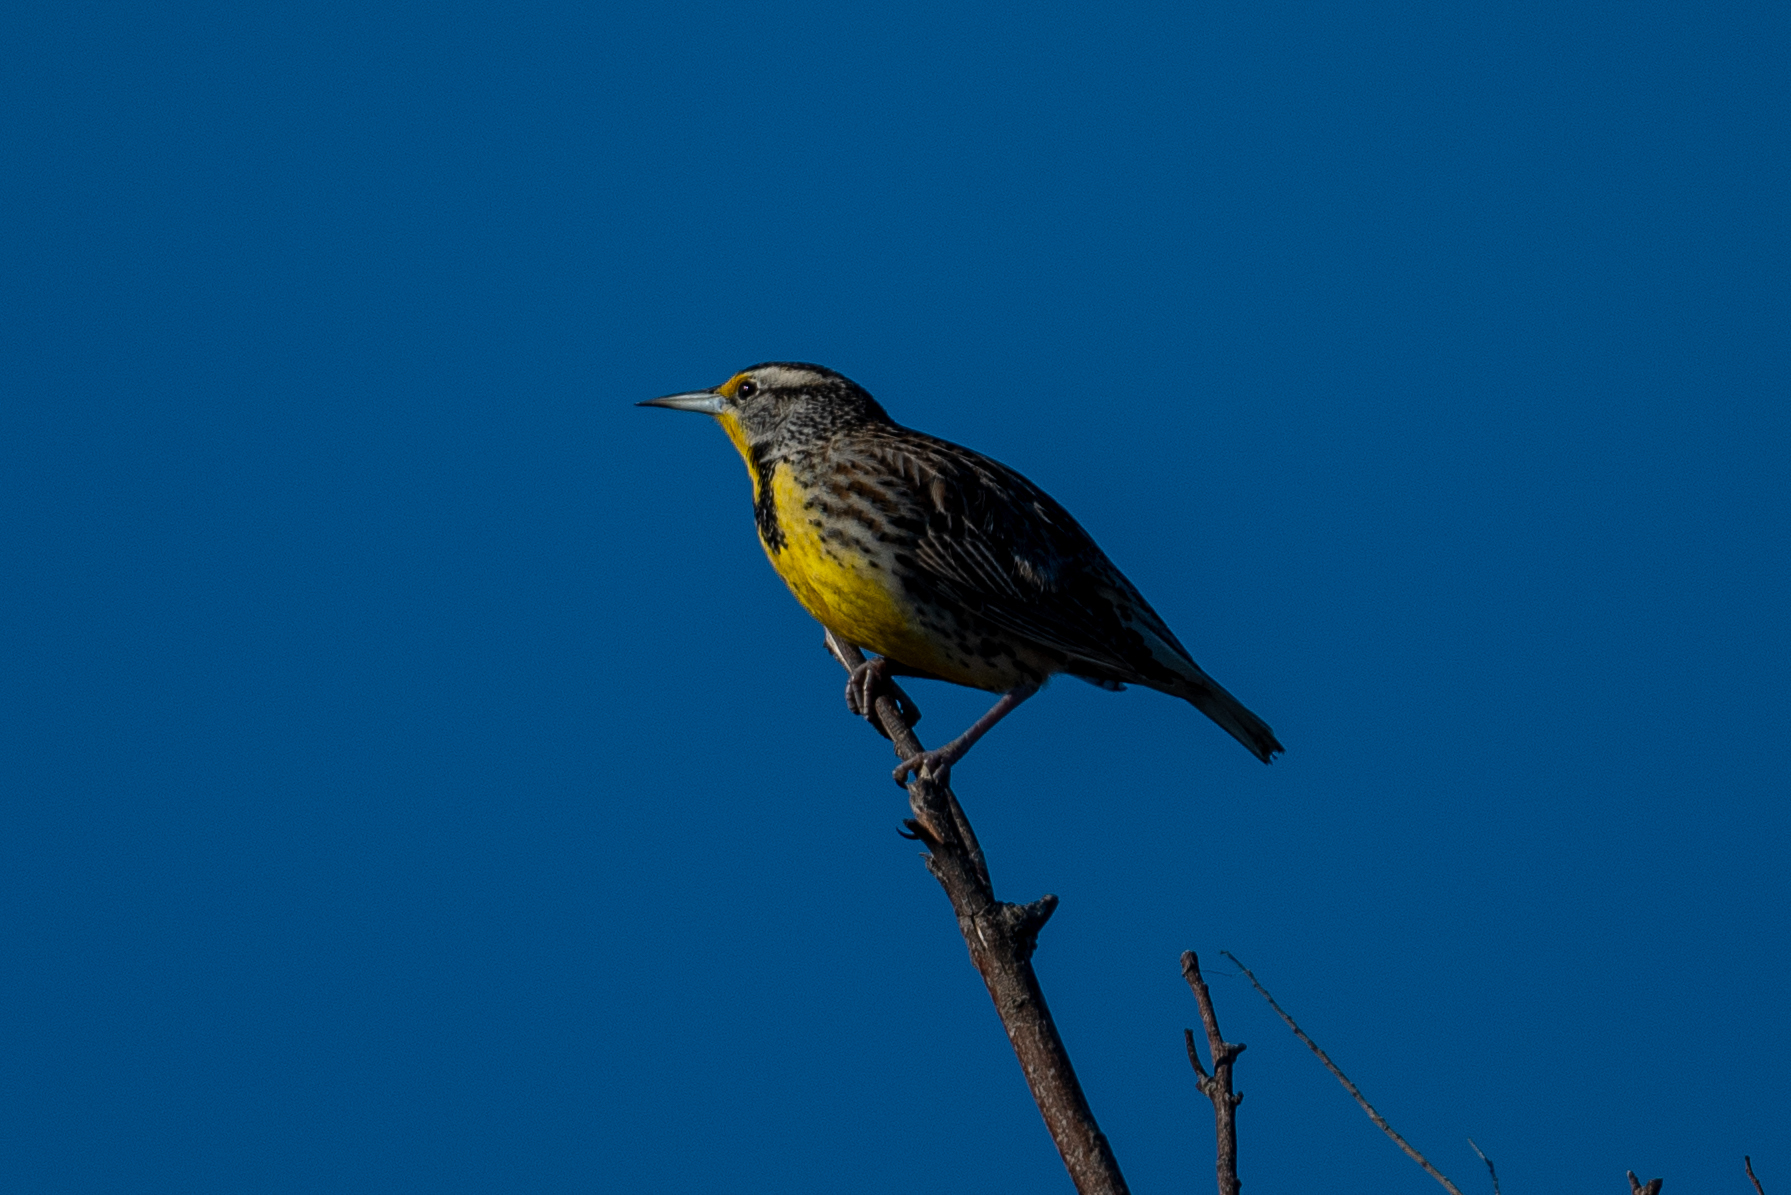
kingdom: Animalia
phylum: Chordata
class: Aves
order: Passeriformes
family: Icteridae
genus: Sturnella
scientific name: Sturnella neglecta
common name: Western meadowlark
